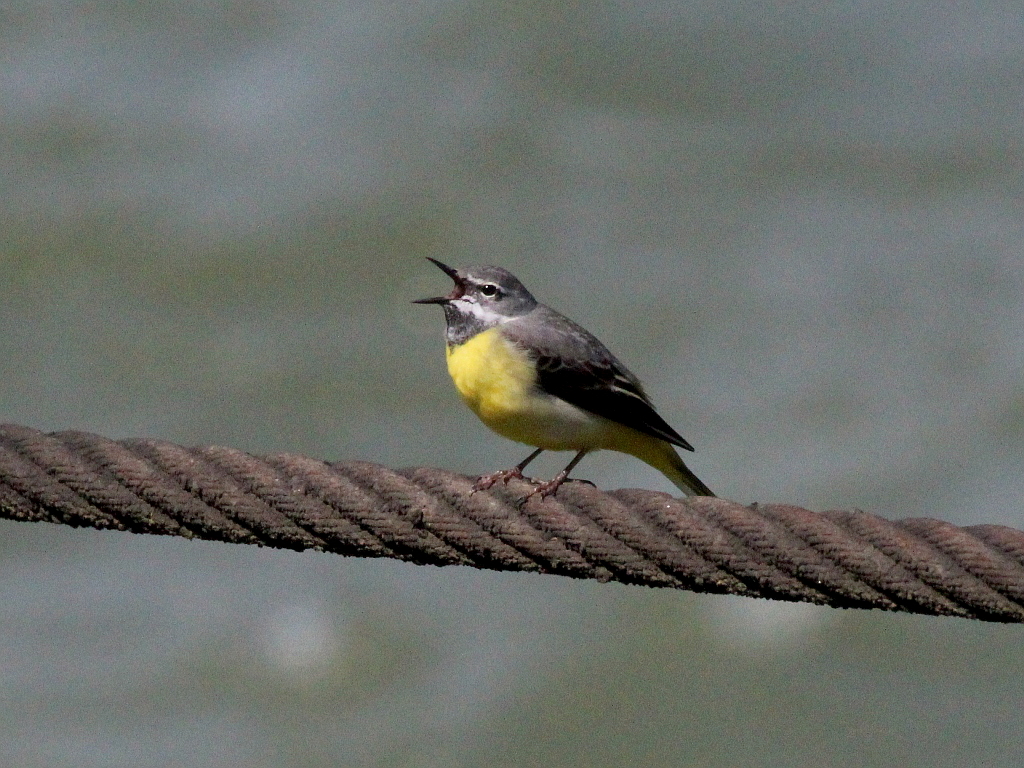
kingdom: Animalia
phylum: Chordata
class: Aves
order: Passeriformes
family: Motacillidae
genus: Motacilla
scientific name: Motacilla cinerea
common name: Grey wagtail
